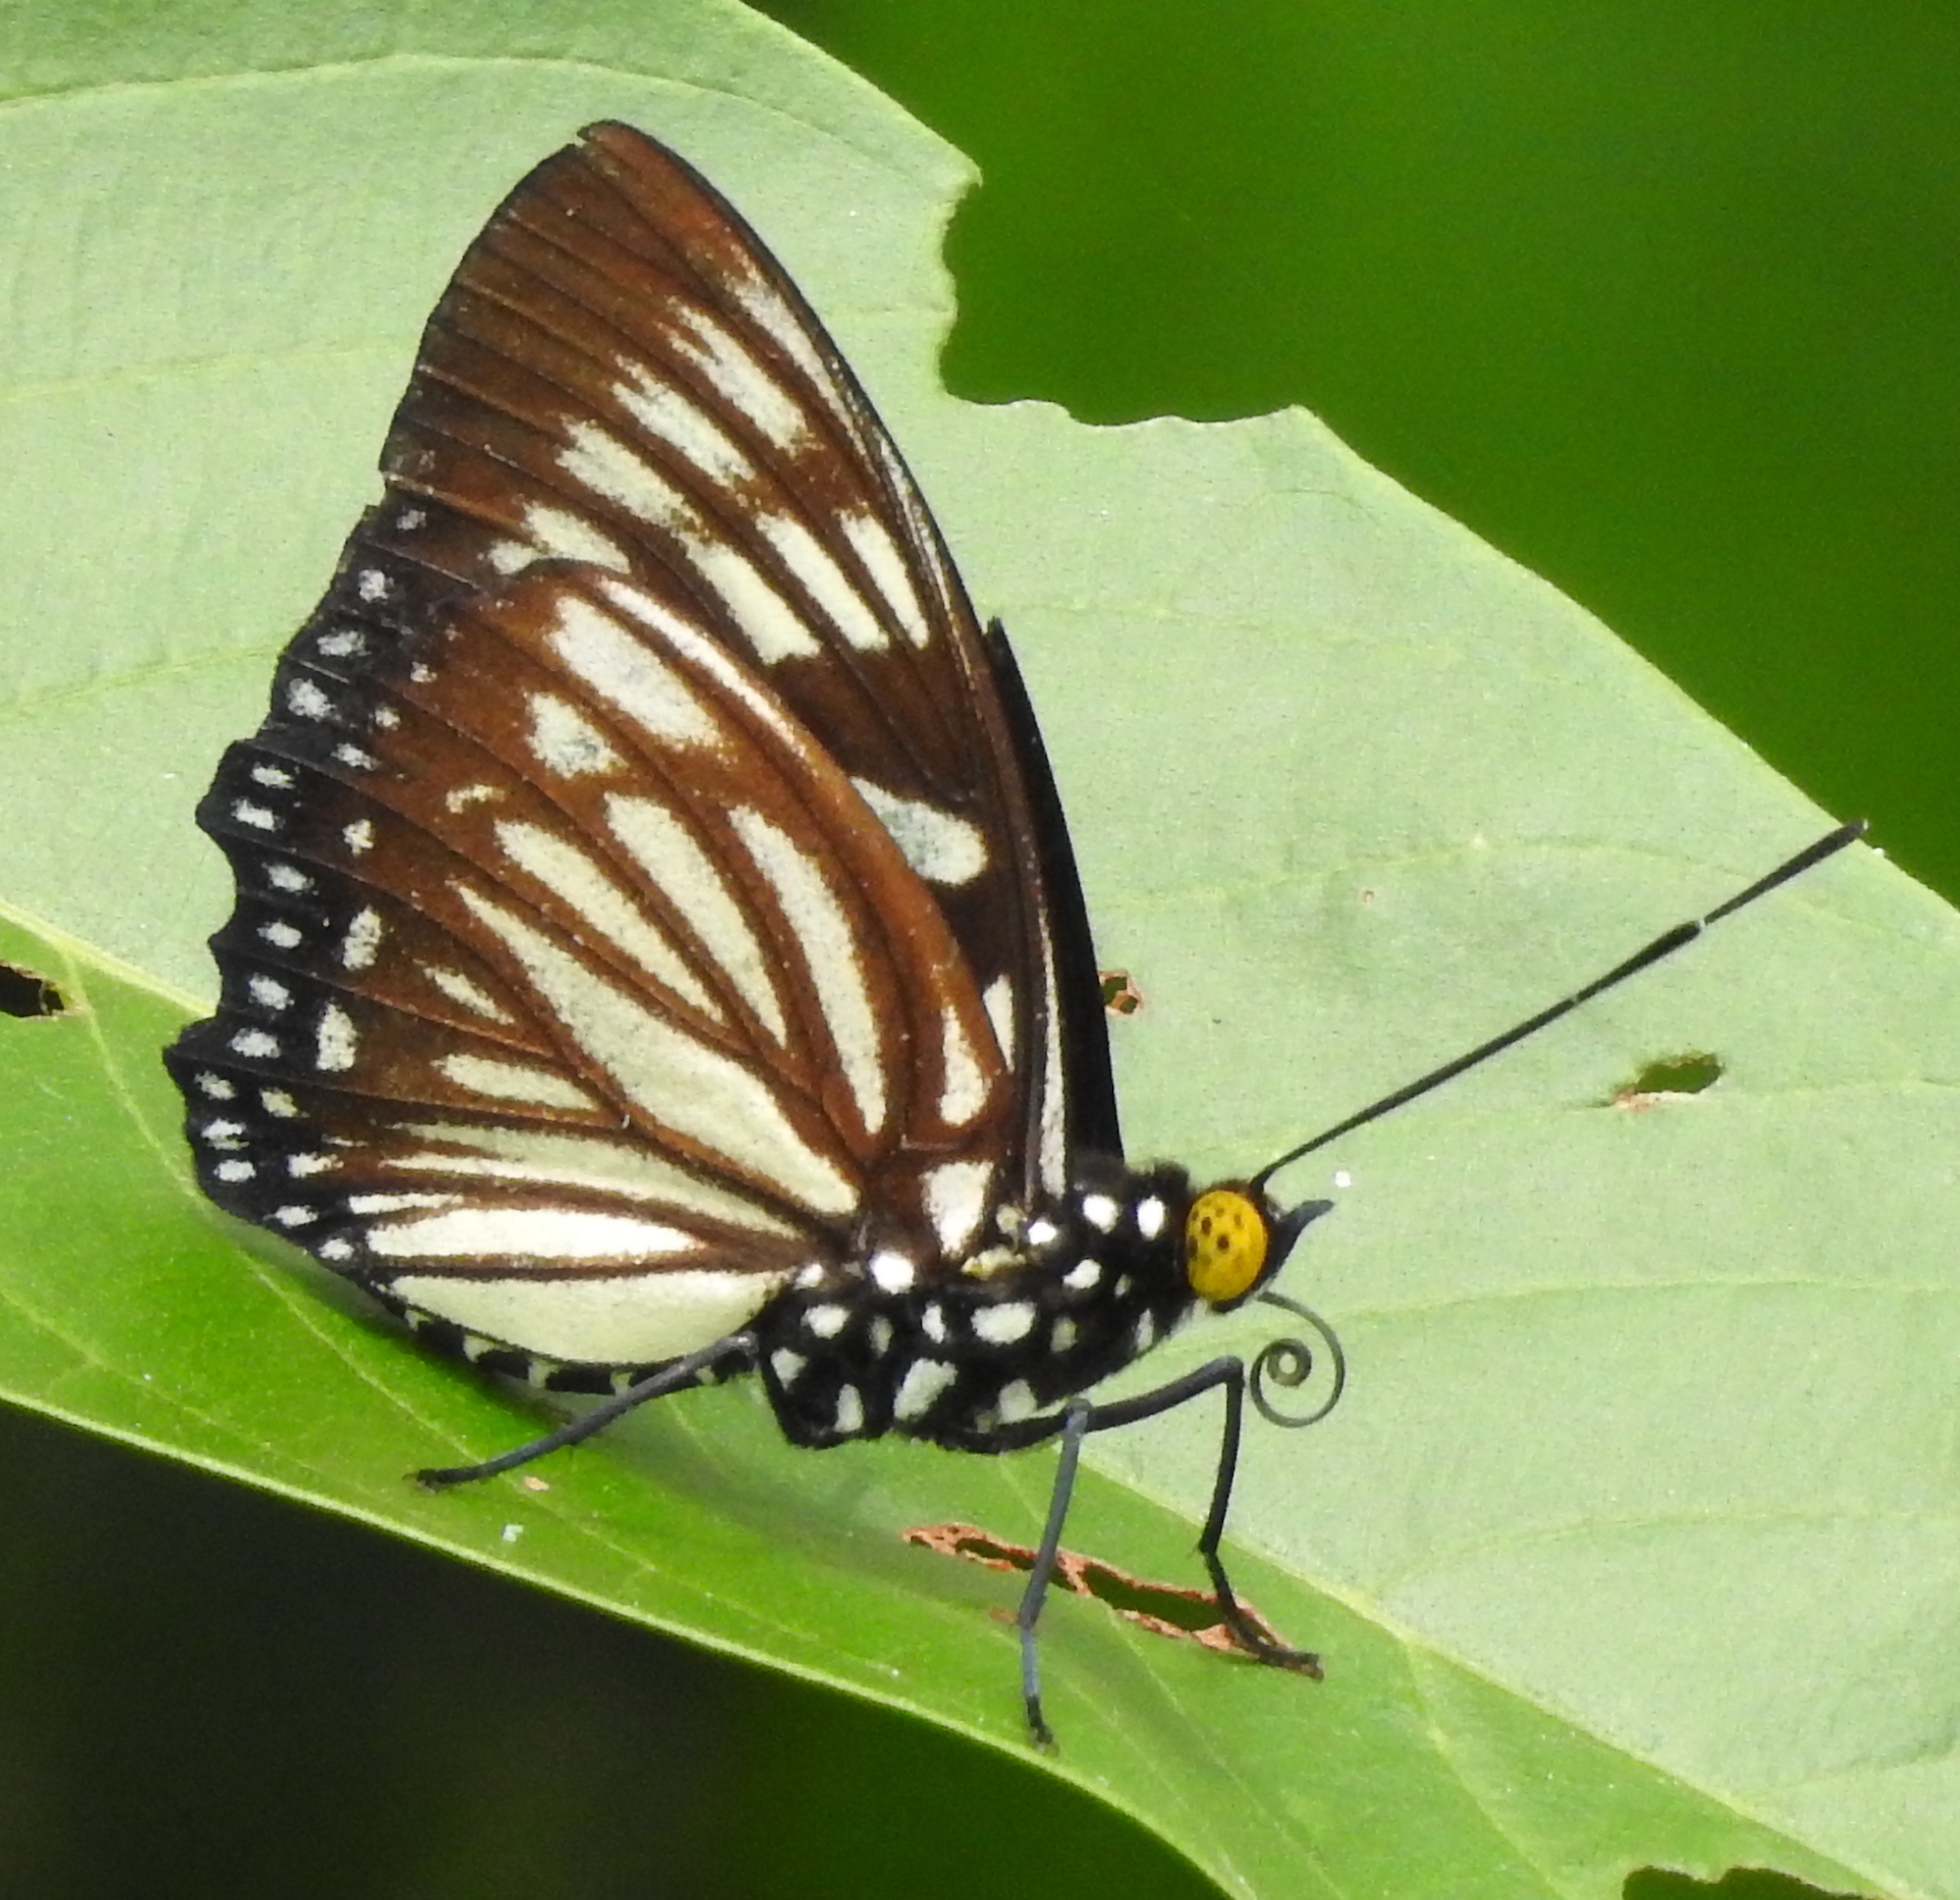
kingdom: Animalia
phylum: Arthropoda
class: Insecta
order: Lepidoptera
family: Nymphalidae
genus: Euripus
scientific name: Euripus nyctelius
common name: Courtesan
